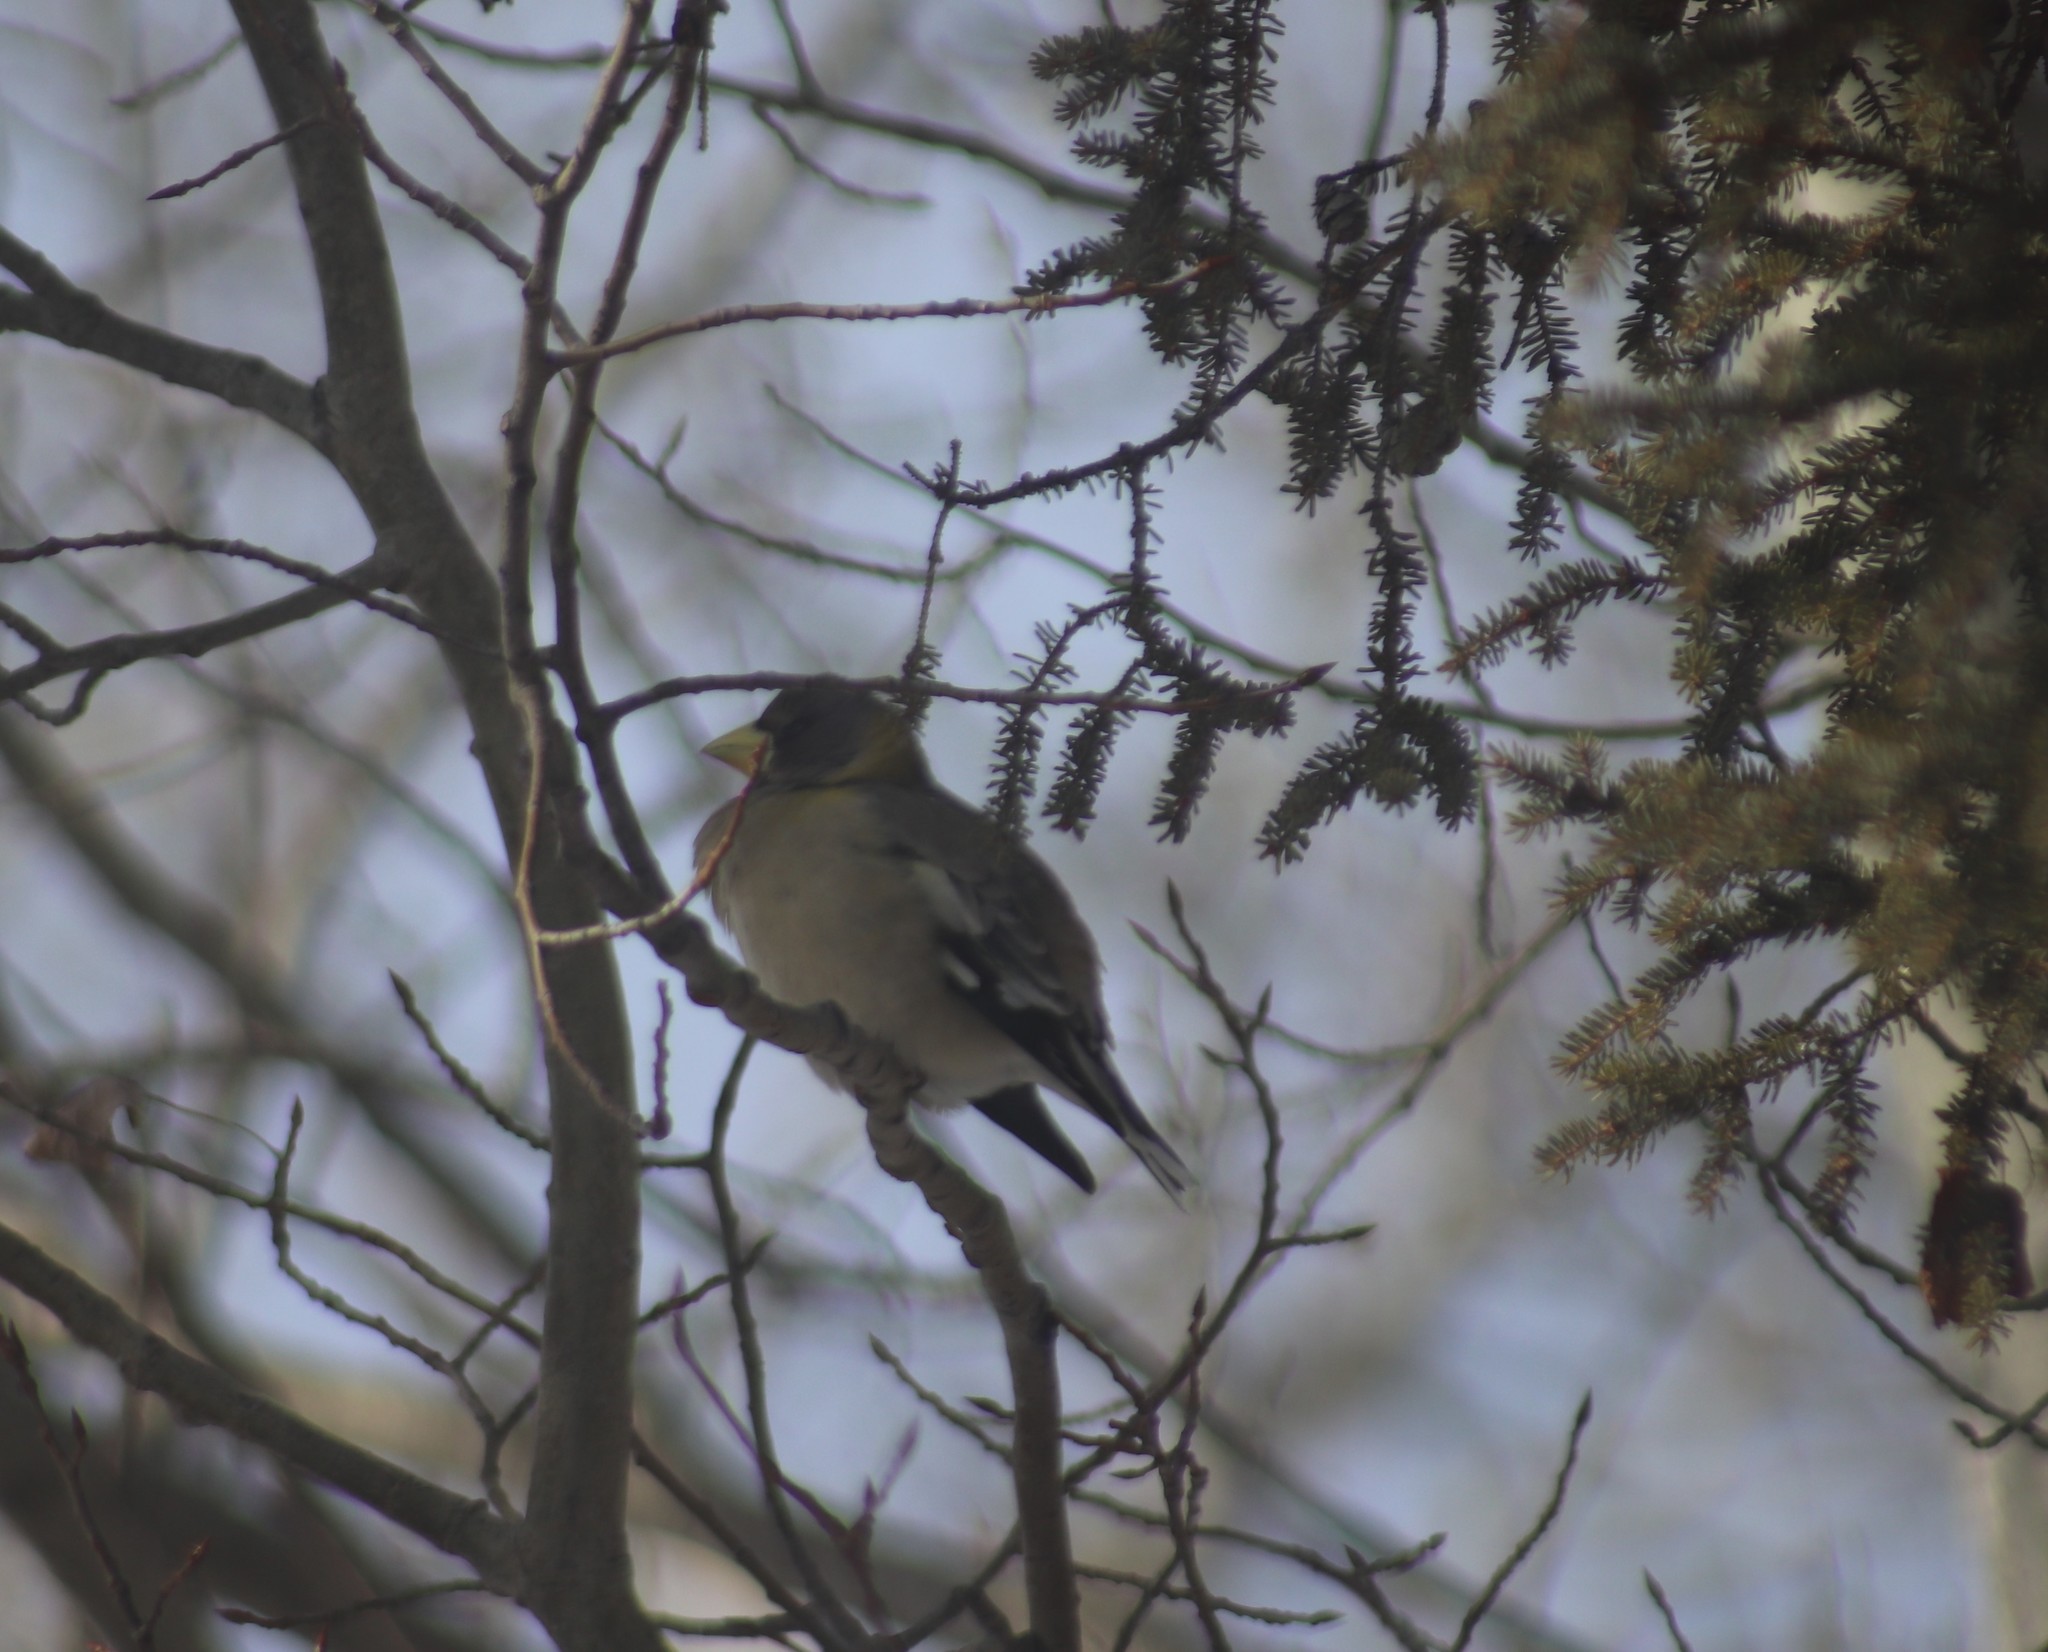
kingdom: Animalia
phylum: Chordata
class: Aves
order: Passeriformes
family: Fringillidae
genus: Hesperiphona
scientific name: Hesperiphona vespertina
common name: Evening grosbeak
